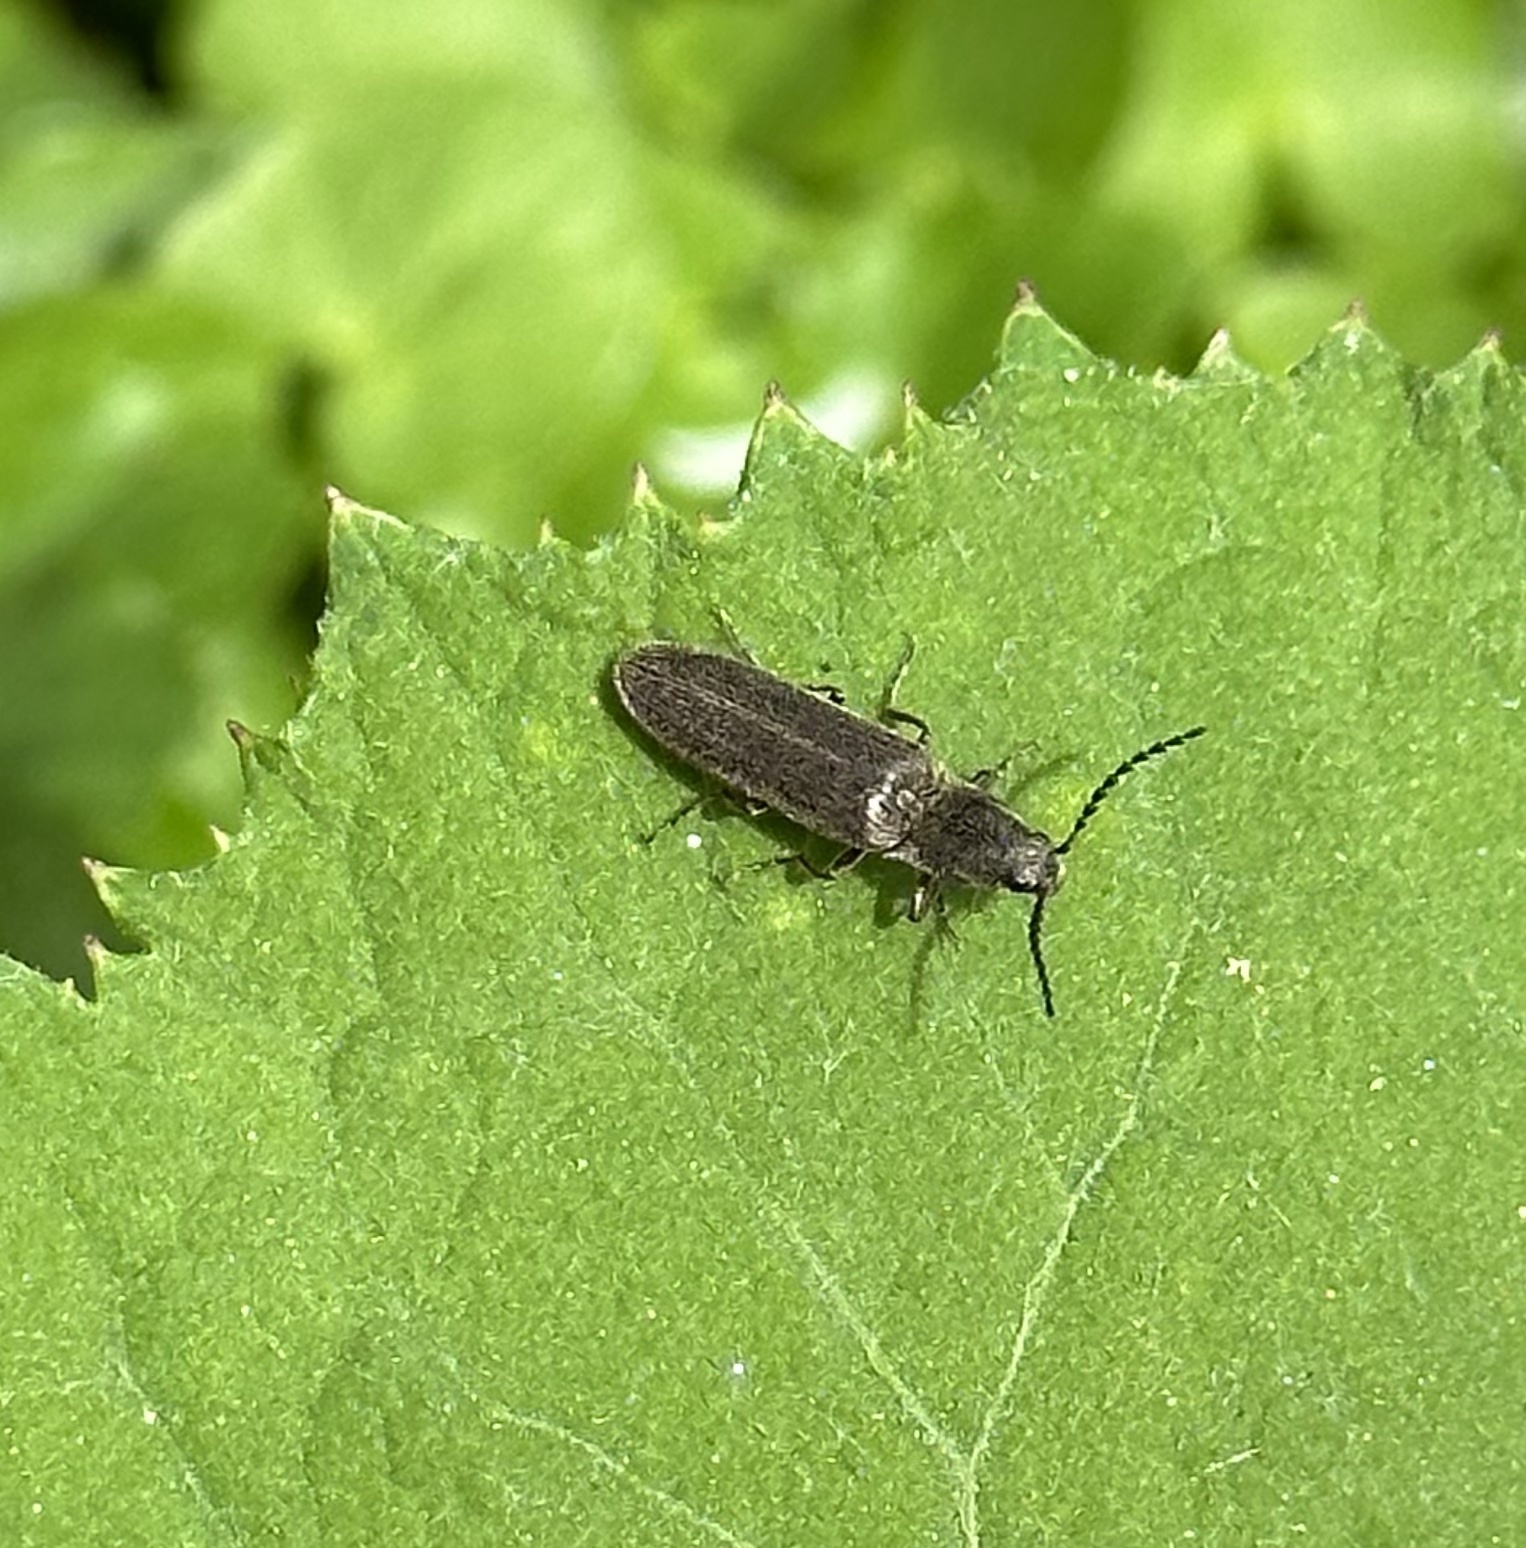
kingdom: Animalia
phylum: Arthropoda
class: Insecta
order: Coleoptera
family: Elateridae
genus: Sylvanelater
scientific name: Sylvanelater cylindriformis
